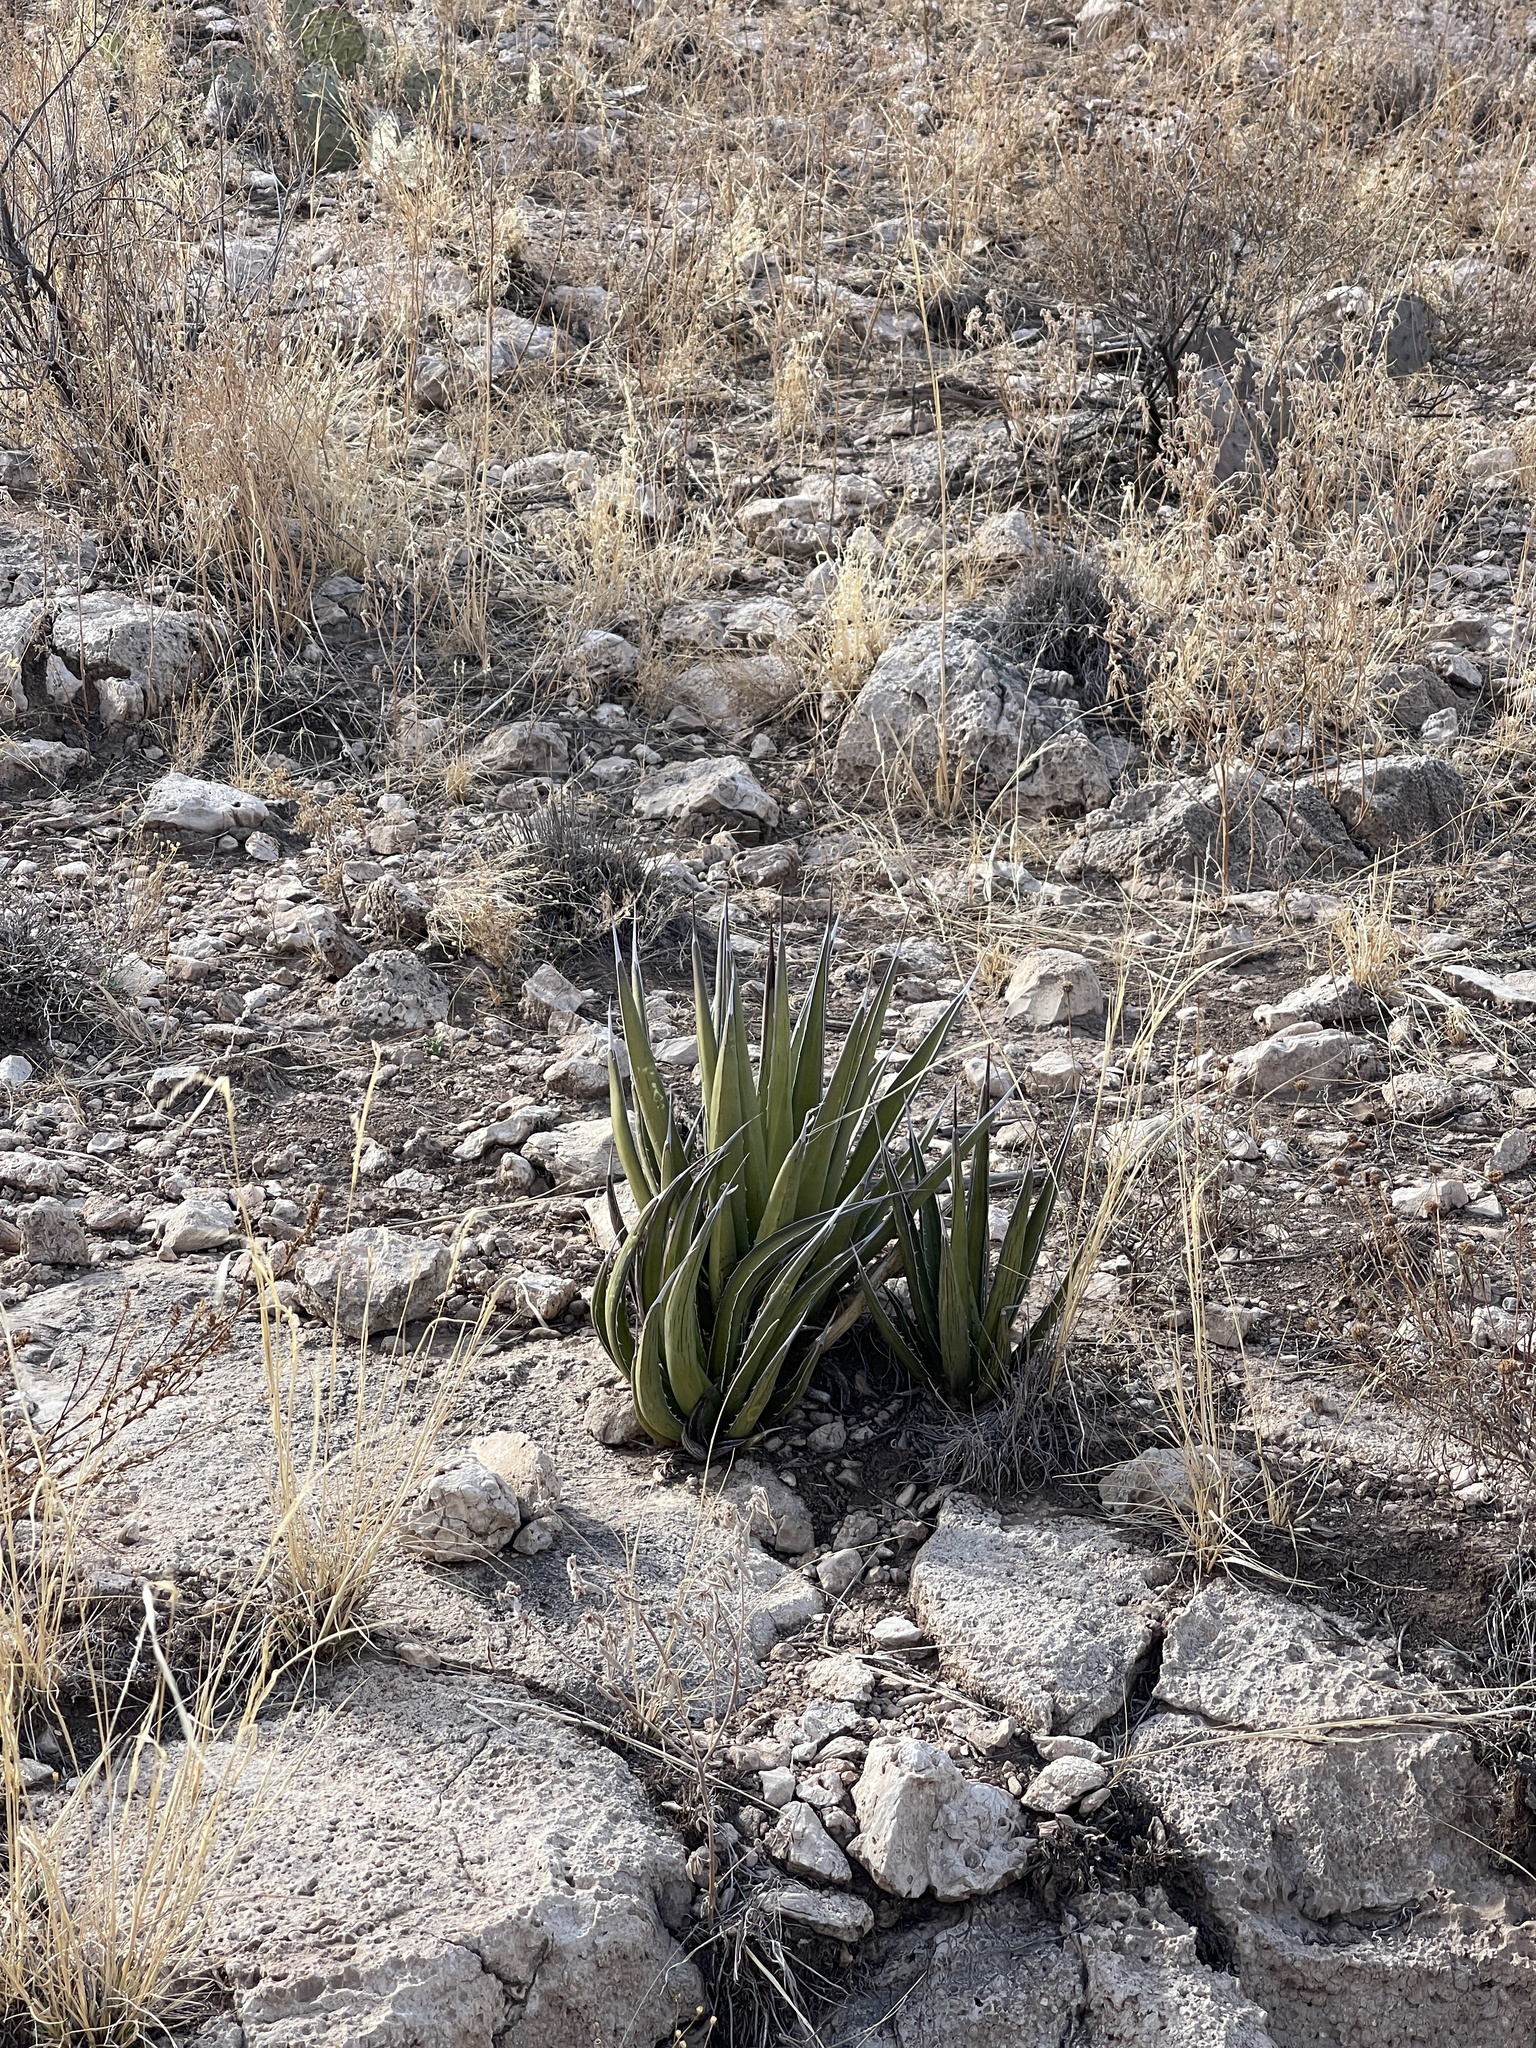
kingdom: Plantae
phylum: Tracheophyta
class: Liliopsida
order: Asparagales
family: Asparagaceae
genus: Agave
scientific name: Agave lechuguilla
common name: Lecheguilla agave
